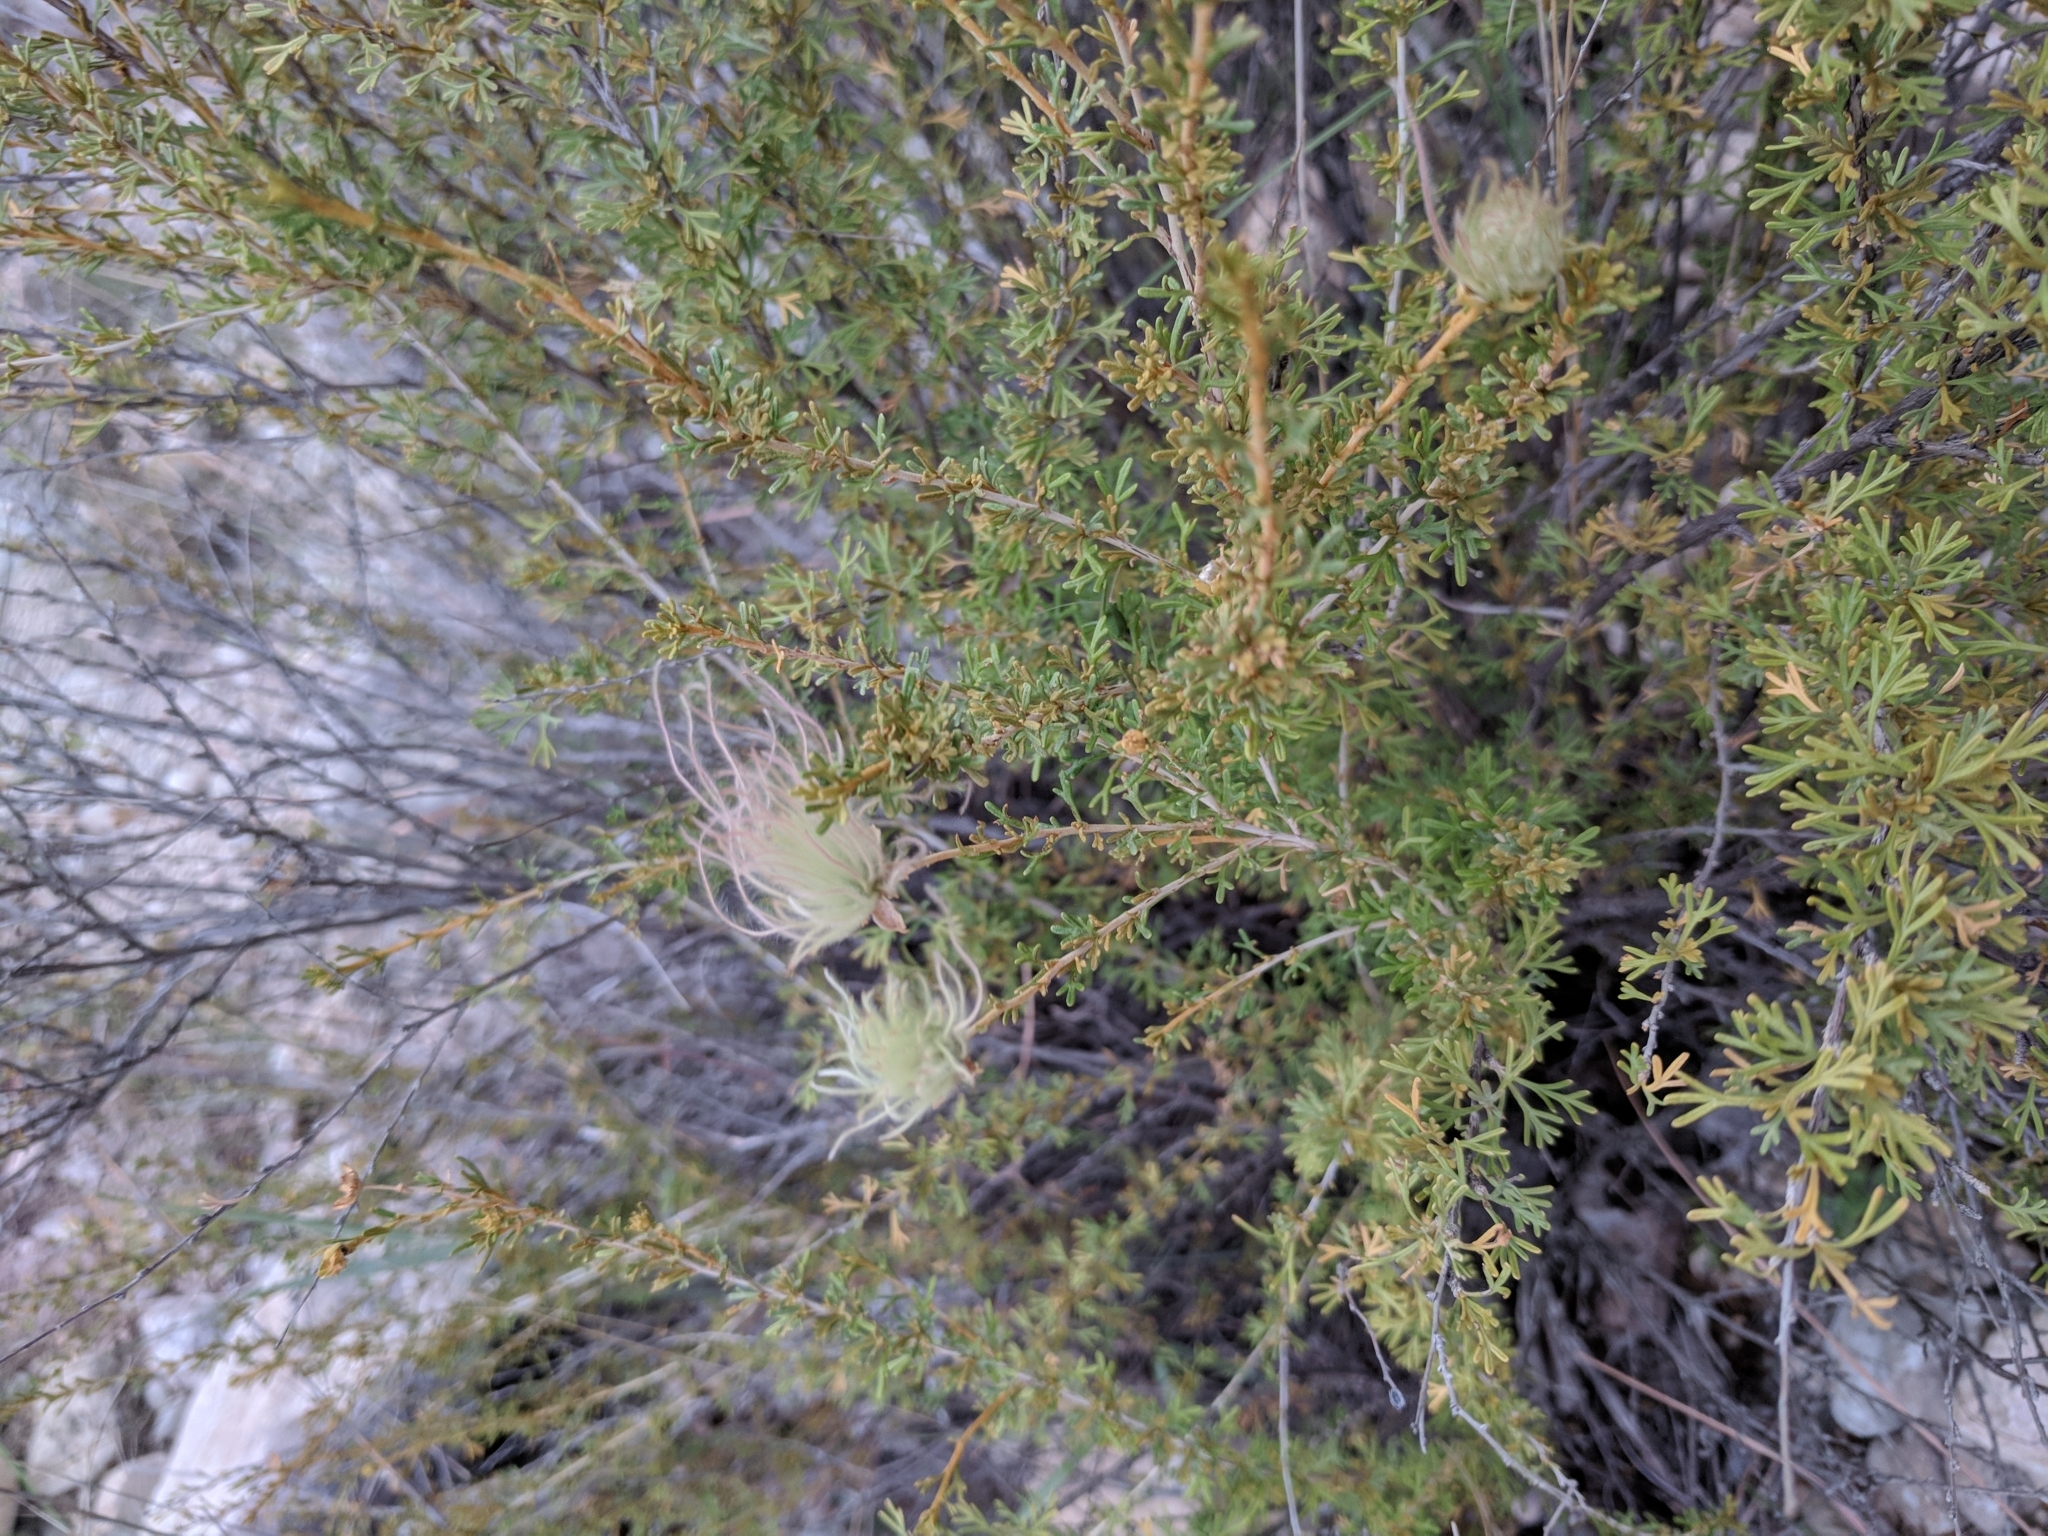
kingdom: Plantae
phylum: Tracheophyta
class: Magnoliopsida
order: Rosales
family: Rosaceae
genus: Fallugia
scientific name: Fallugia paradoxa
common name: Apache-plume
